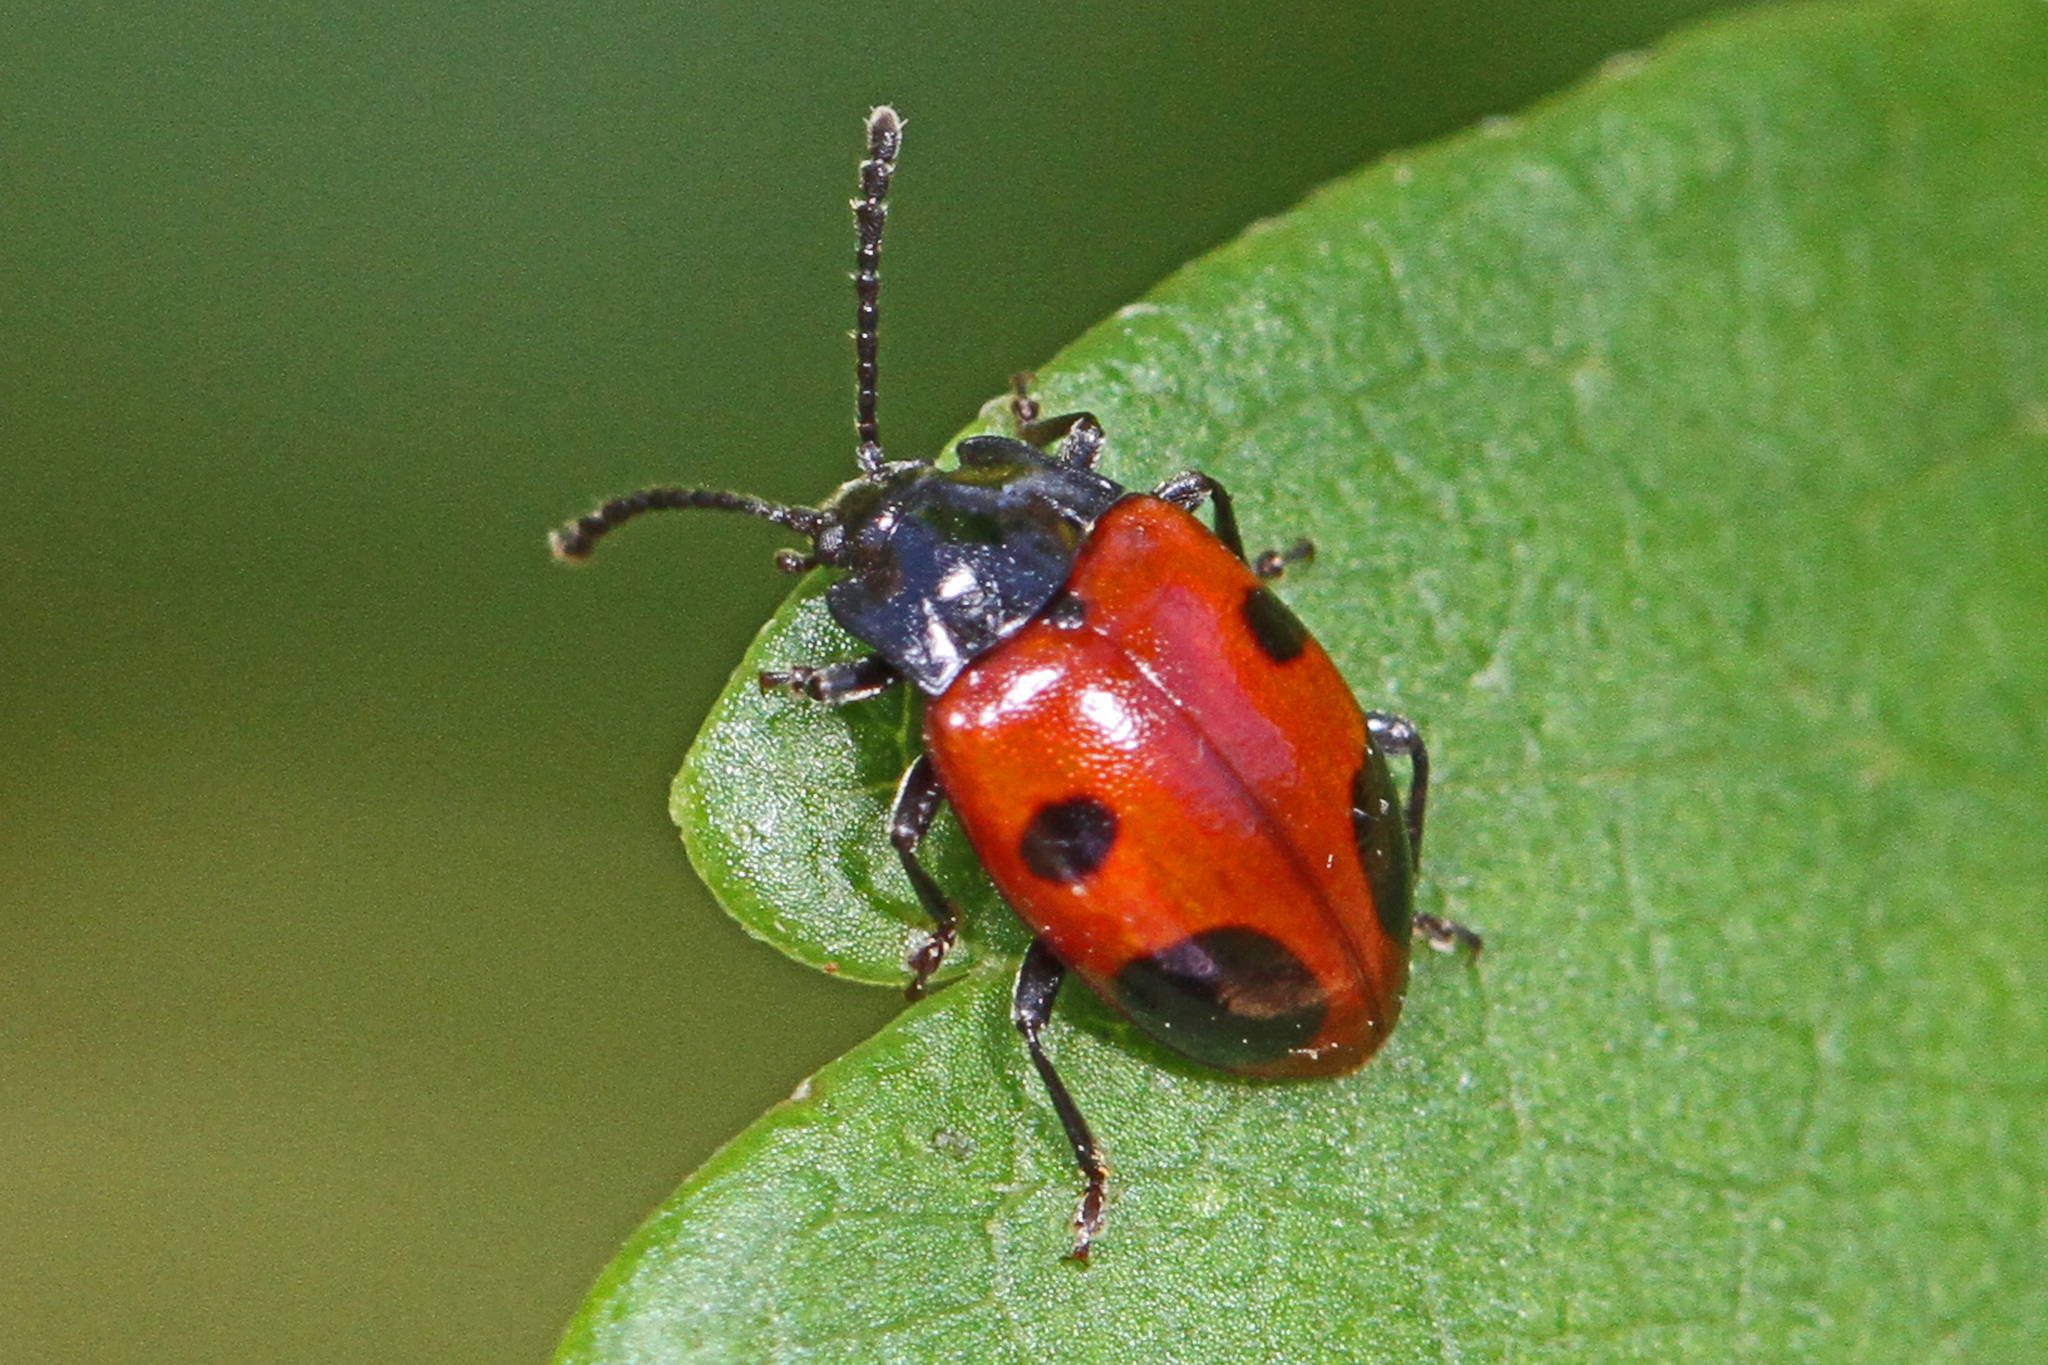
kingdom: Animalia
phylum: Arthropoda
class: Insecta
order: Coleoptera
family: Endomychidae
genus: Endomychus
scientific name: Endomychus biguttatus
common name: Handsome fungus beetle
